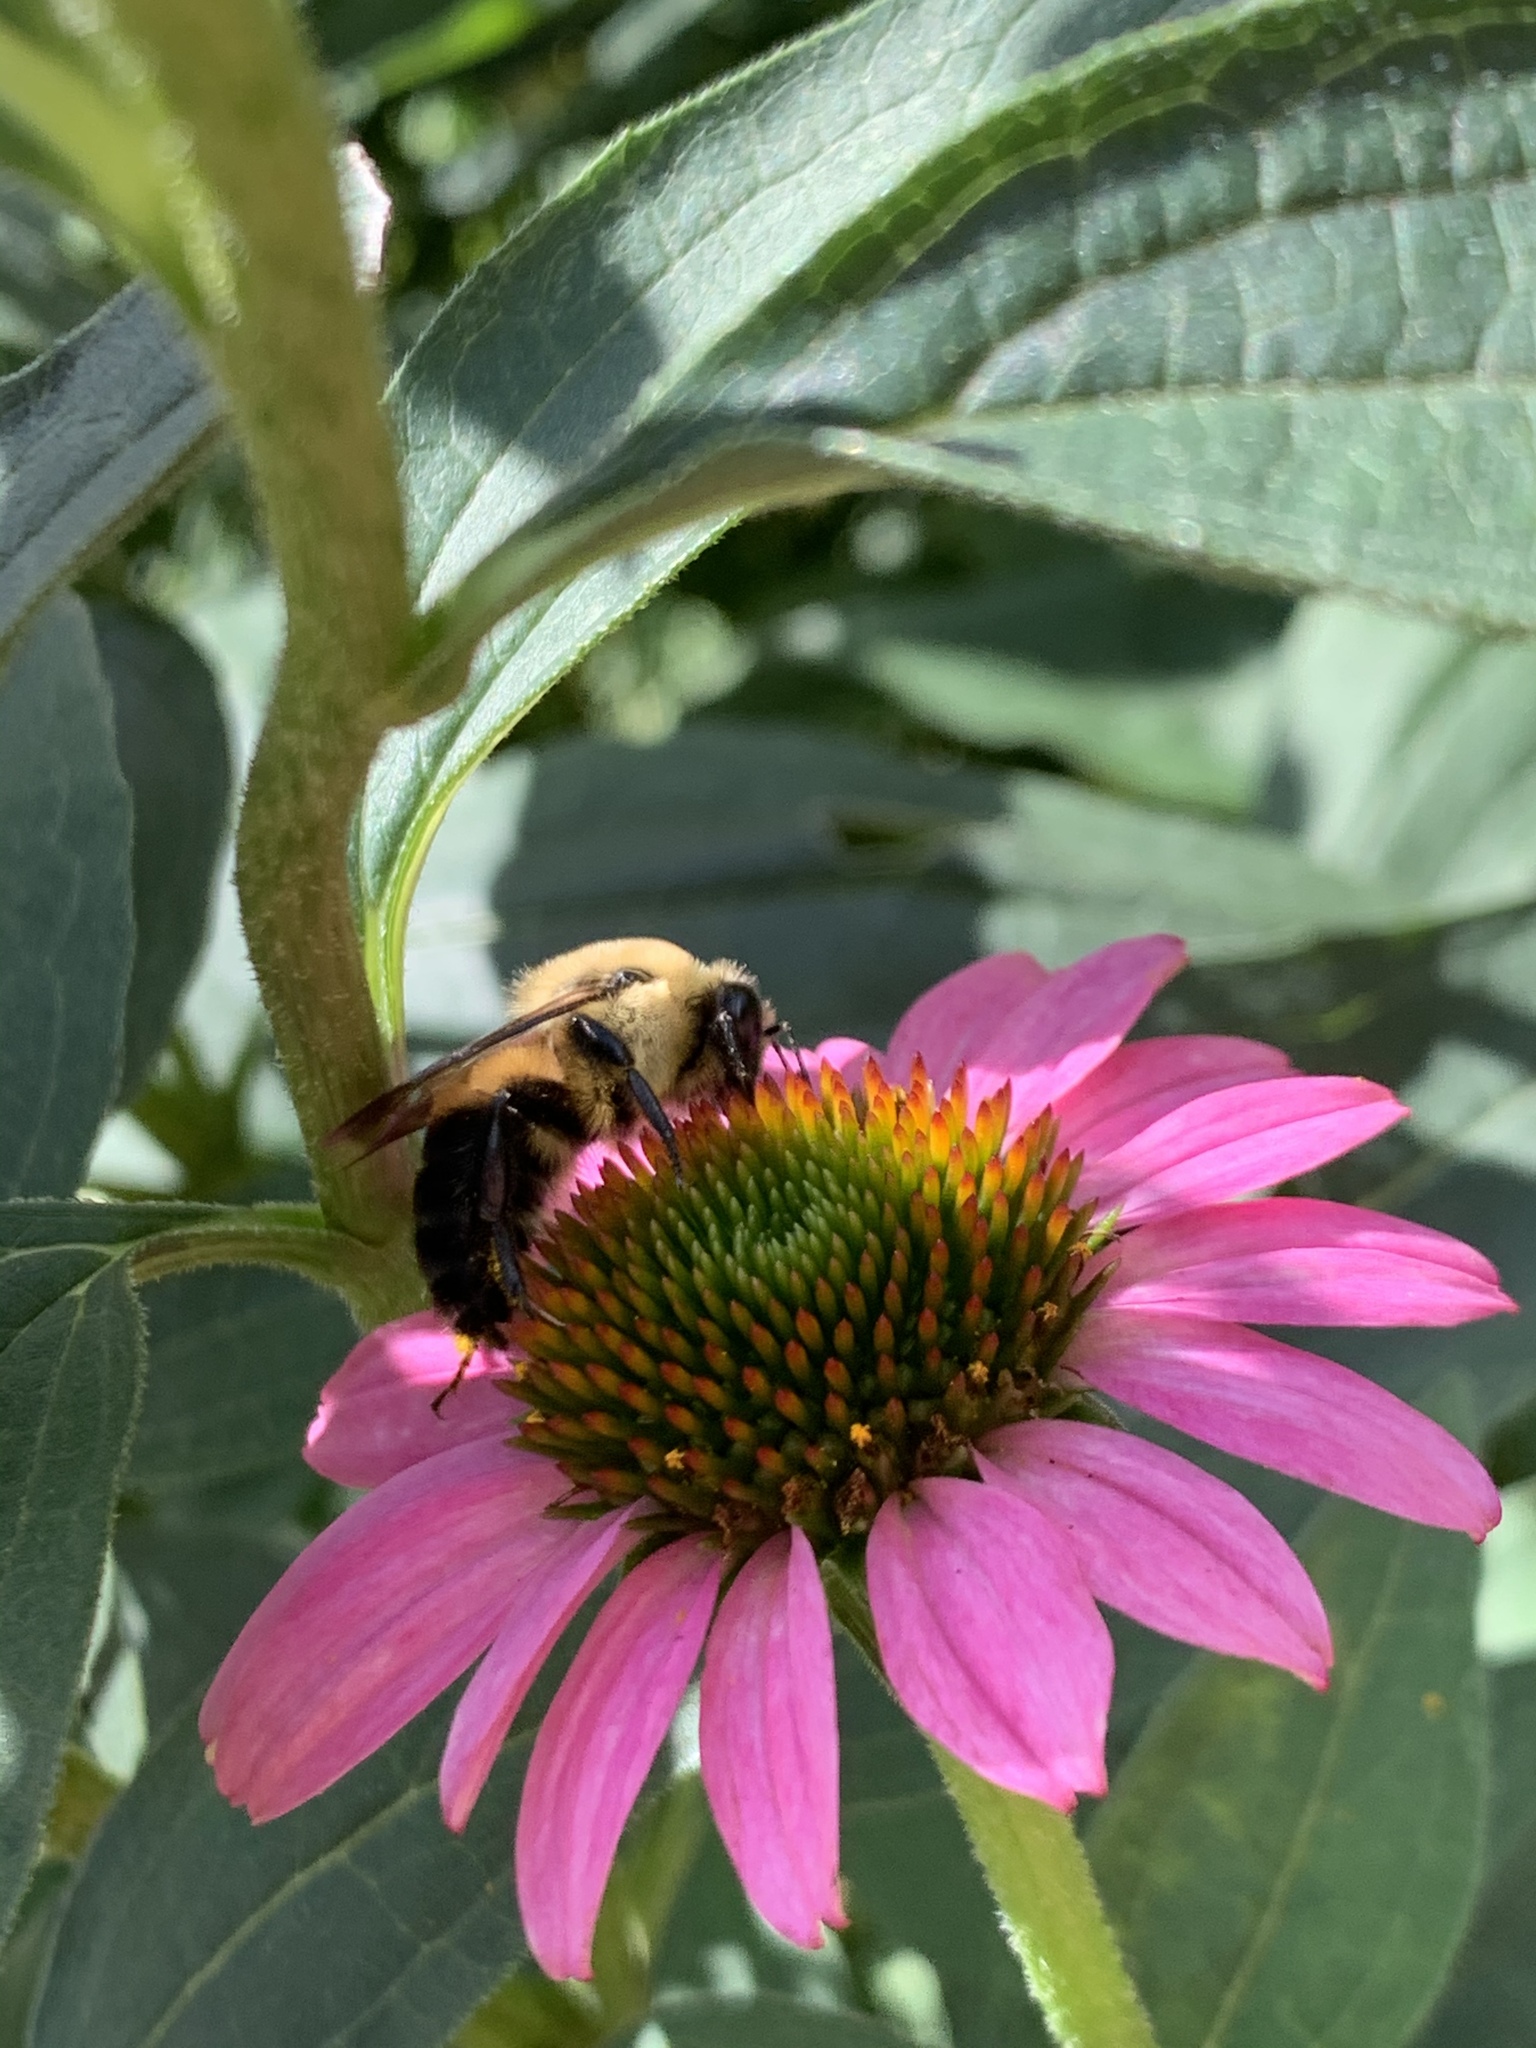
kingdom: Animalia
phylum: Arthropoda
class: Insecta
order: Hymenoptera
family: Apidae
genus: Bombus
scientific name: Bombus griseocollis
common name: Brown-belted bumble bee
